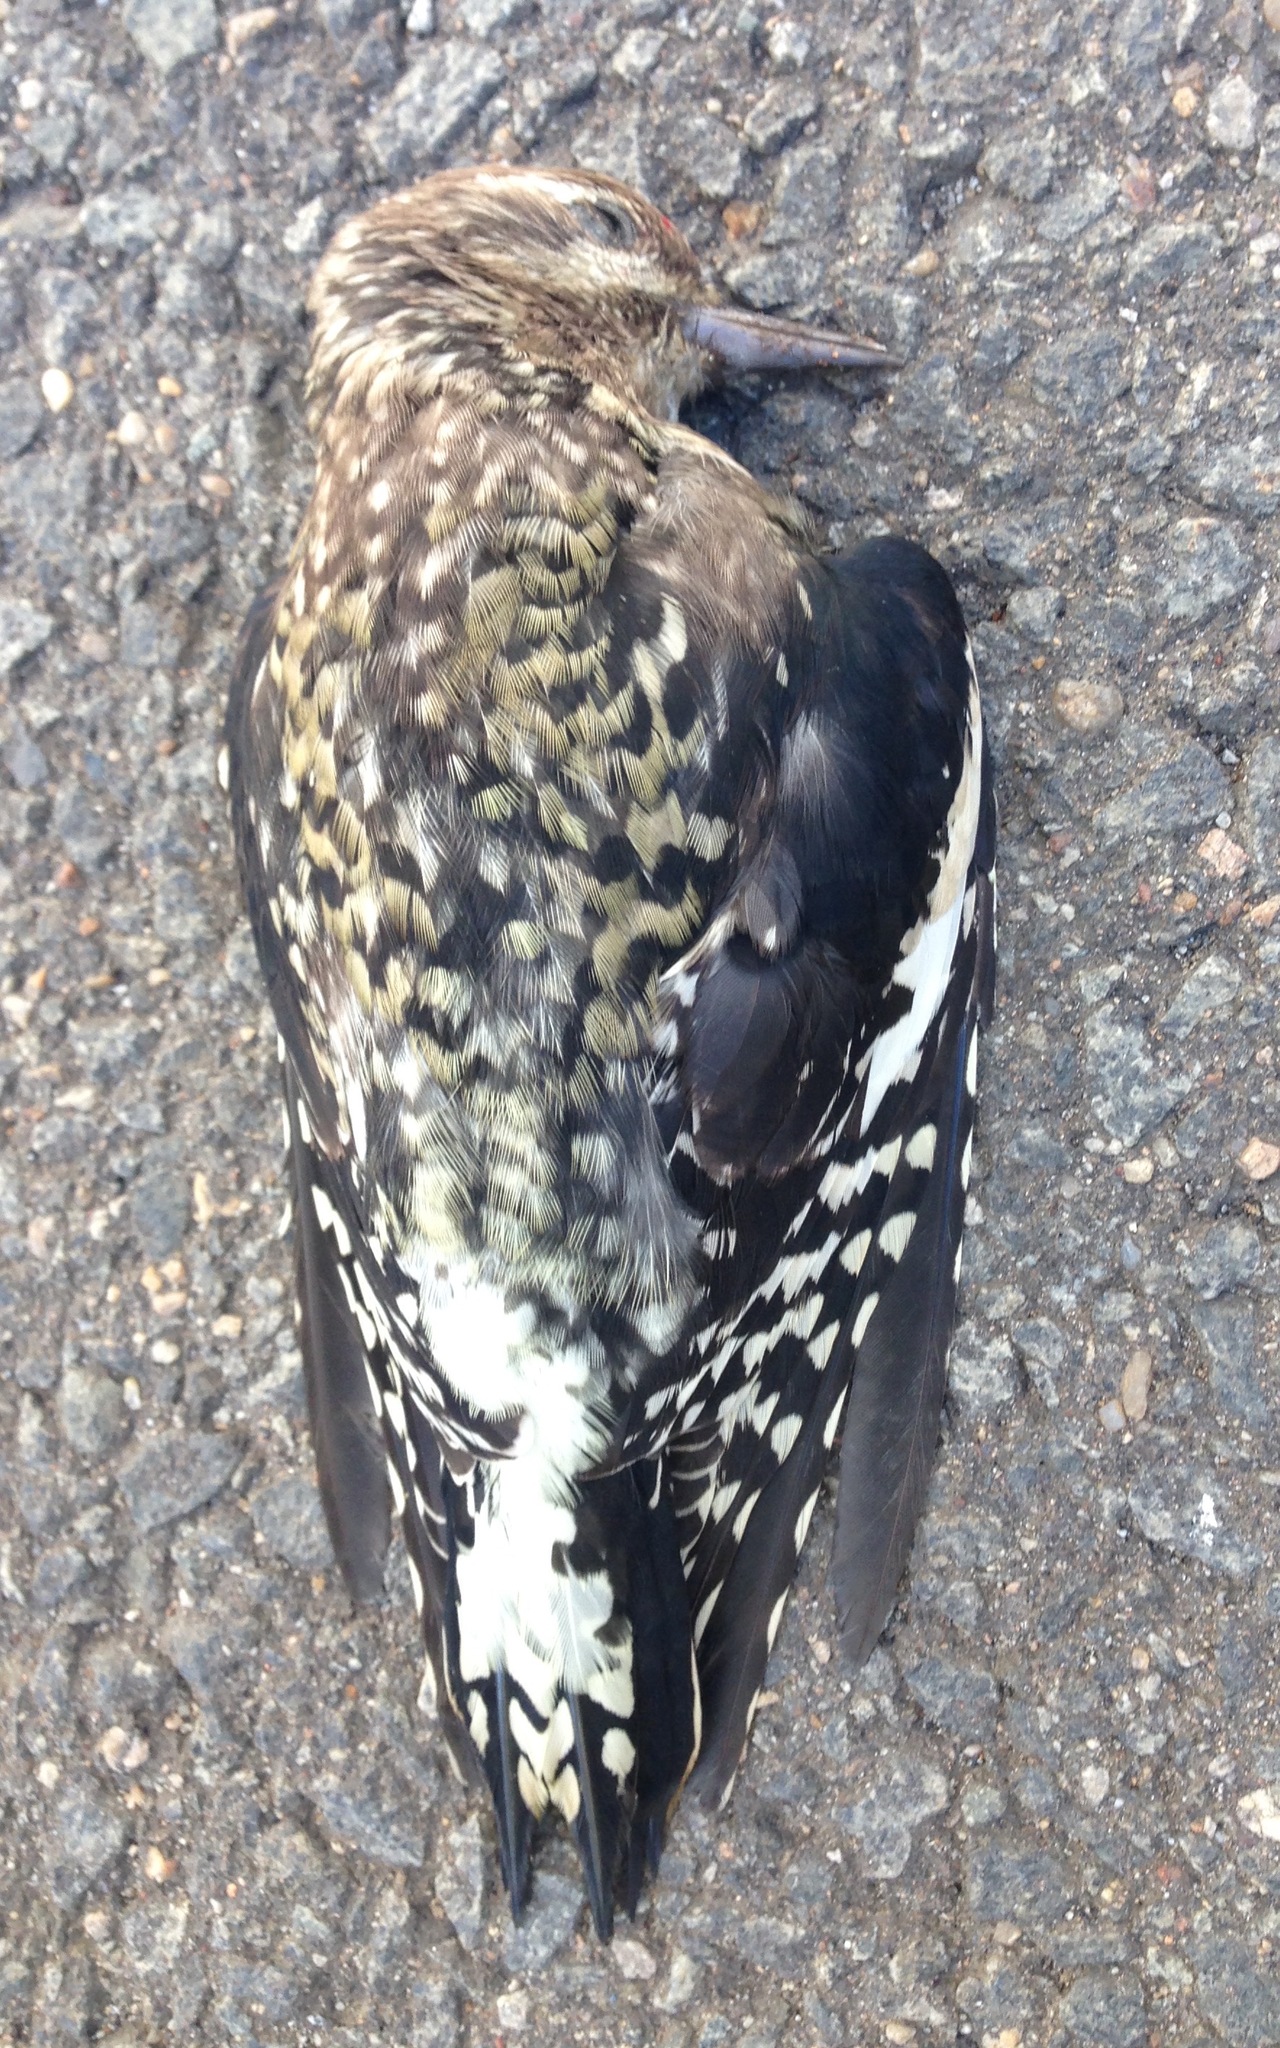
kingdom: Animalia
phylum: Chordata
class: Aves
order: Piciformes
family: Picidae
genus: Sphyrapicus
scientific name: Sphyrapicus varius
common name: Yellow-bellied sapsucker
